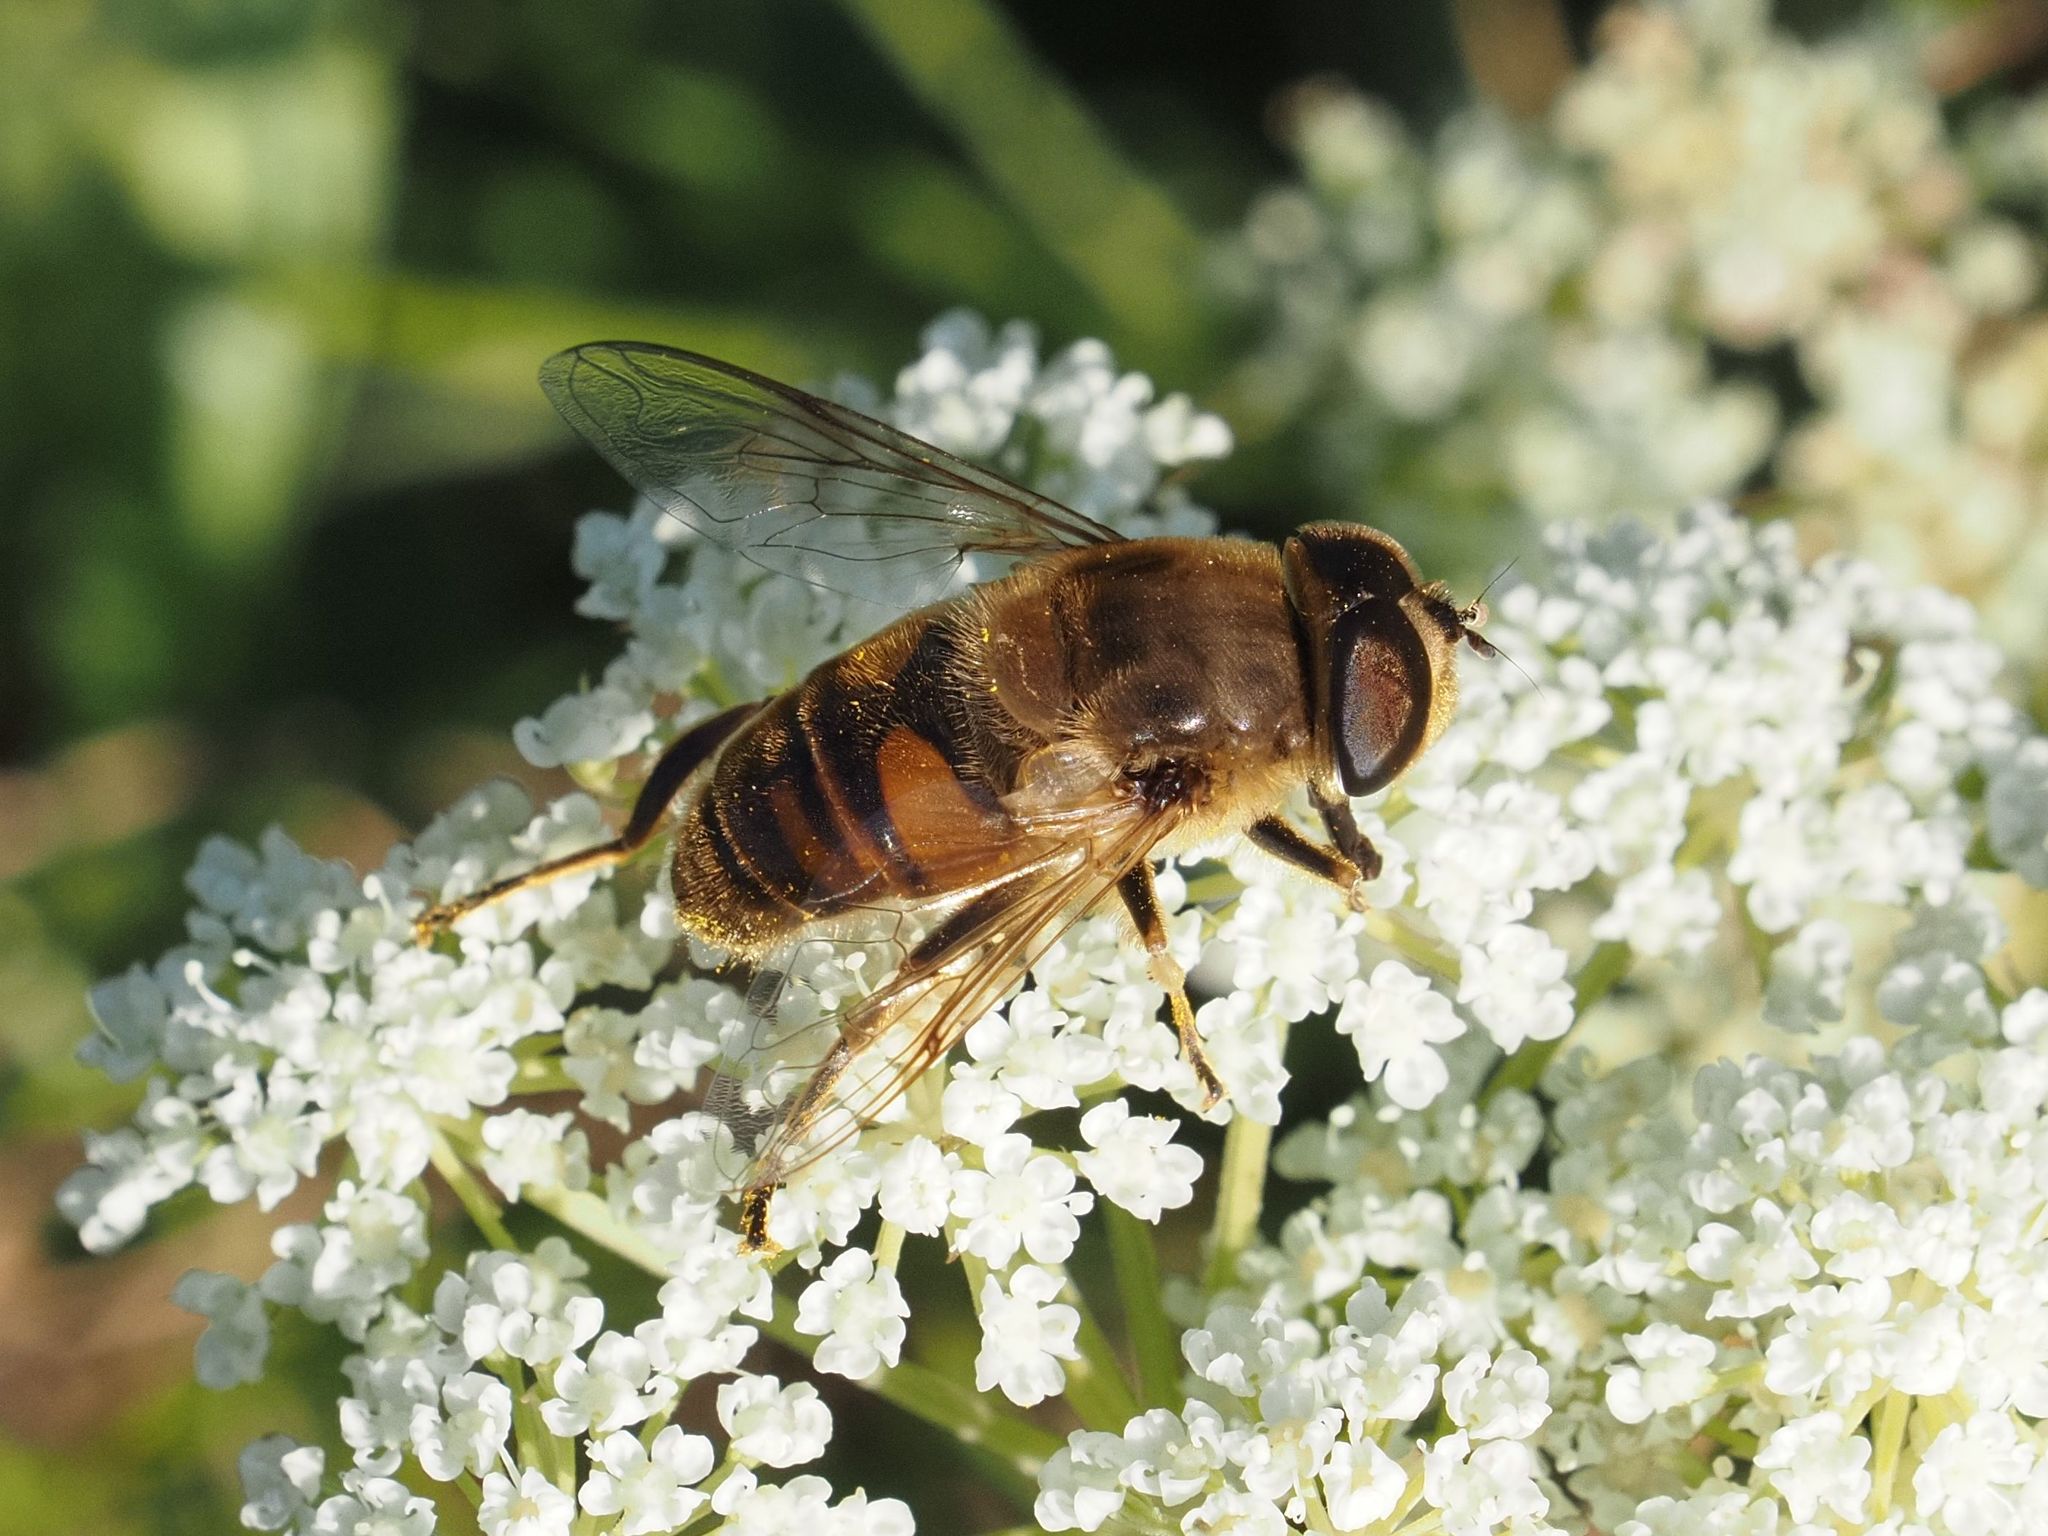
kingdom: Animalia
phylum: Arthropoda
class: Insecta
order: Diptera
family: Syrphidae
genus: Eristalis
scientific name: Eristalis tenax
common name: Drone fly
